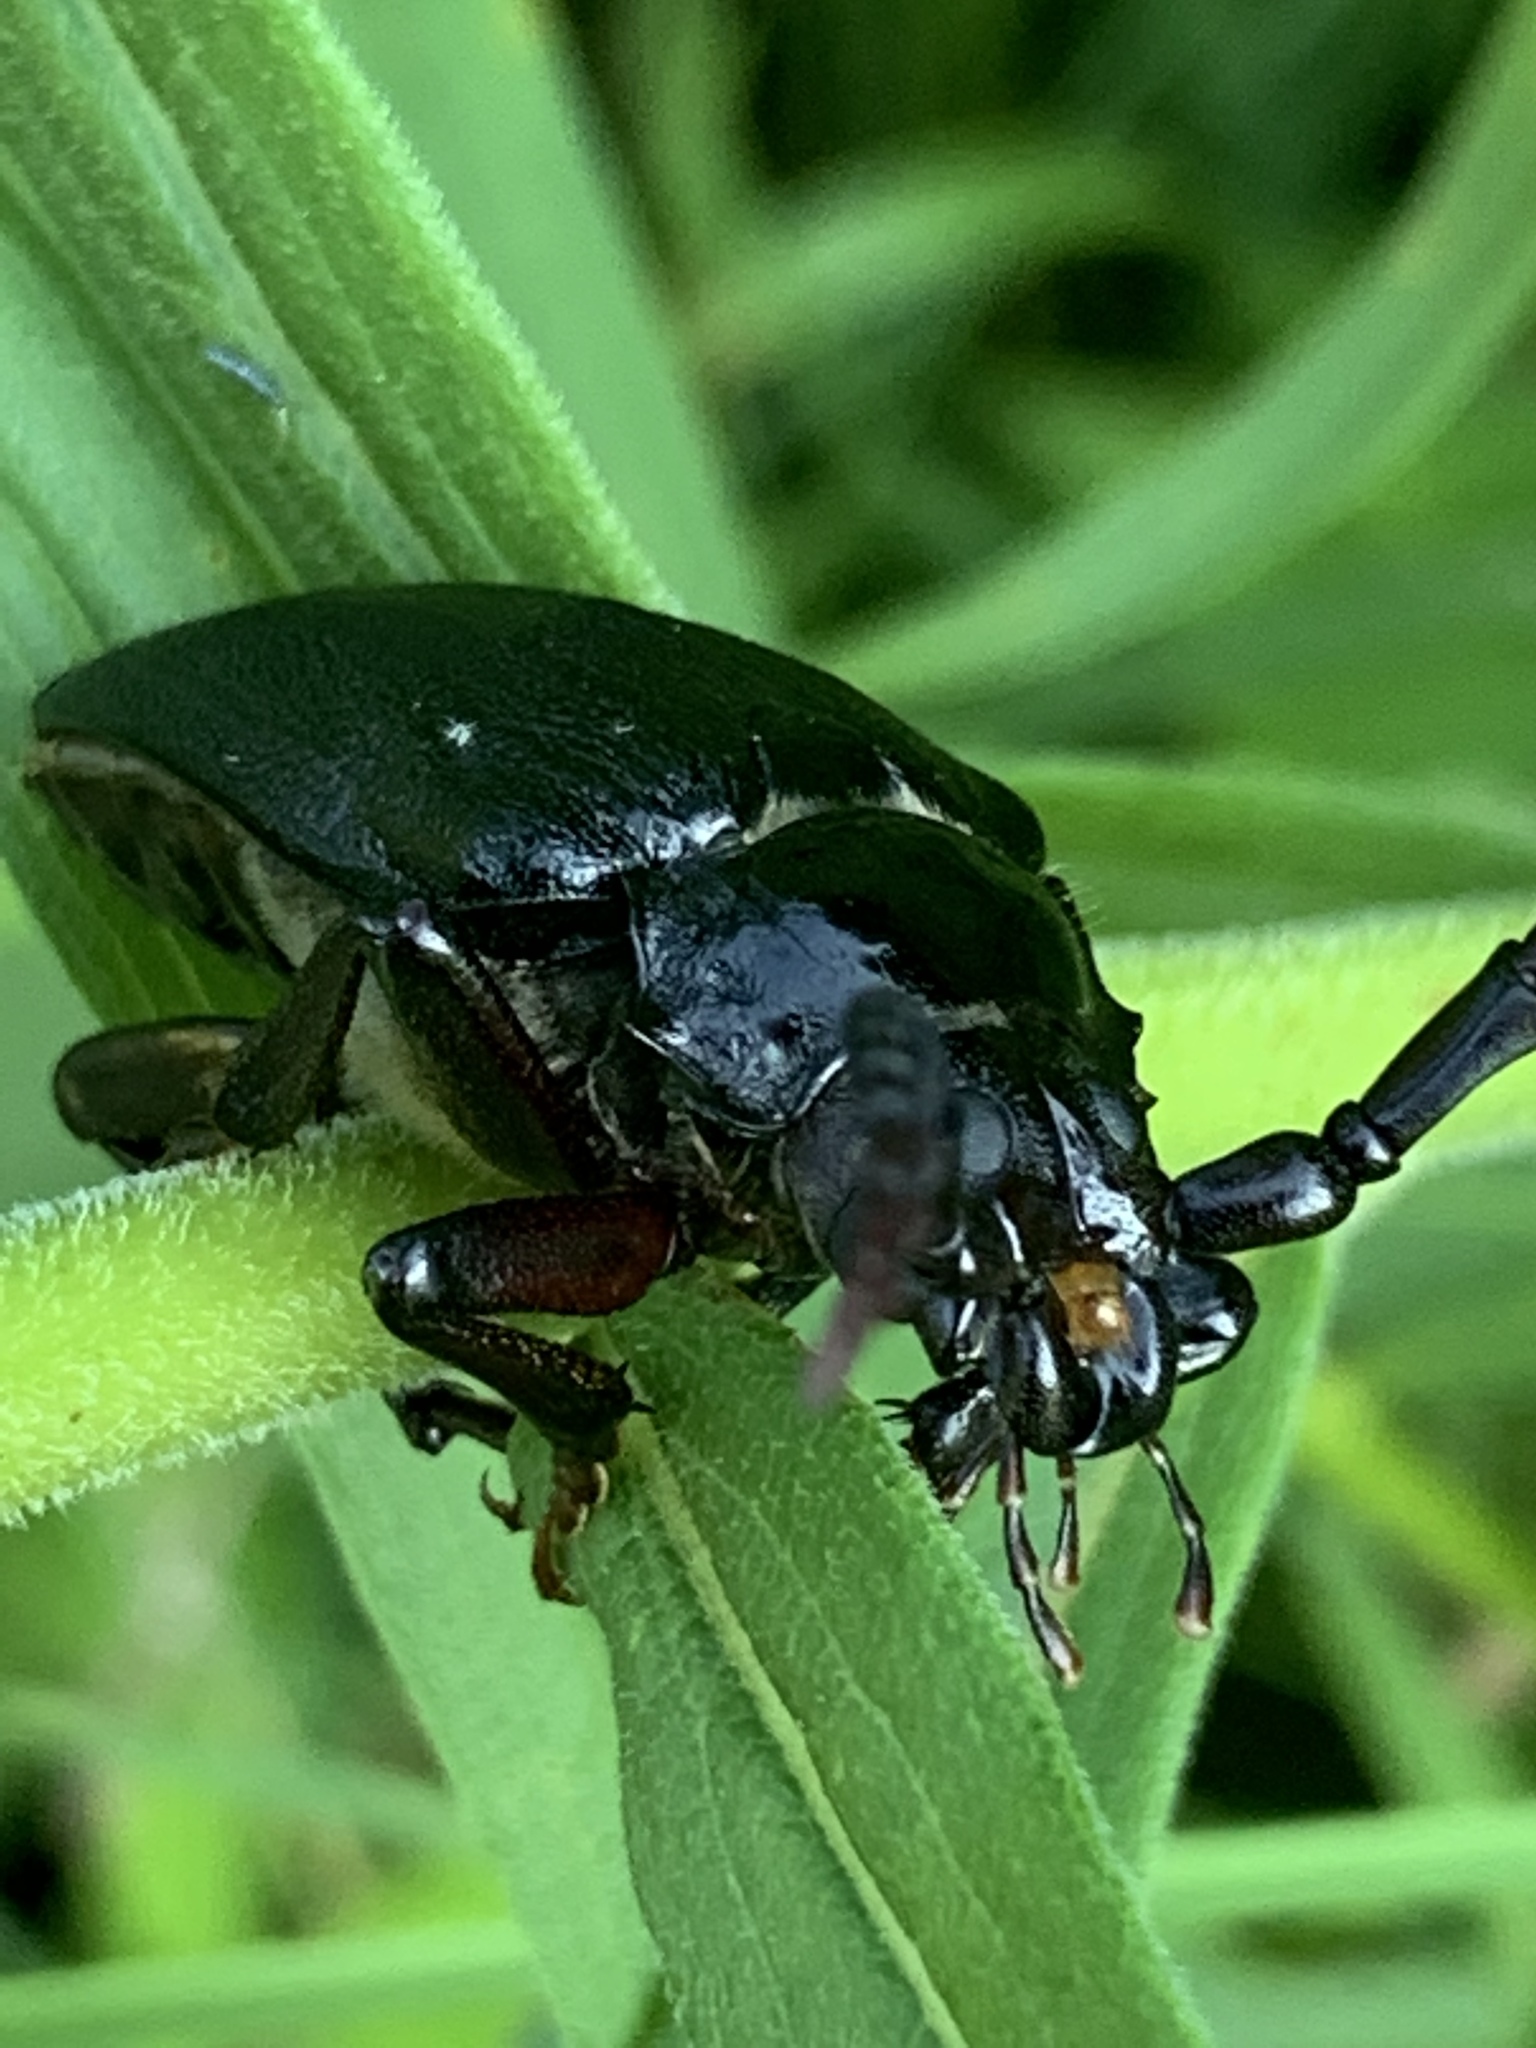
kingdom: Animalia
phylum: Arthropoda
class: Insecta
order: Coleoptera
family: Cerambycidae
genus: Prionus
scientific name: Prionus laticollis
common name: Broad necked prionus
